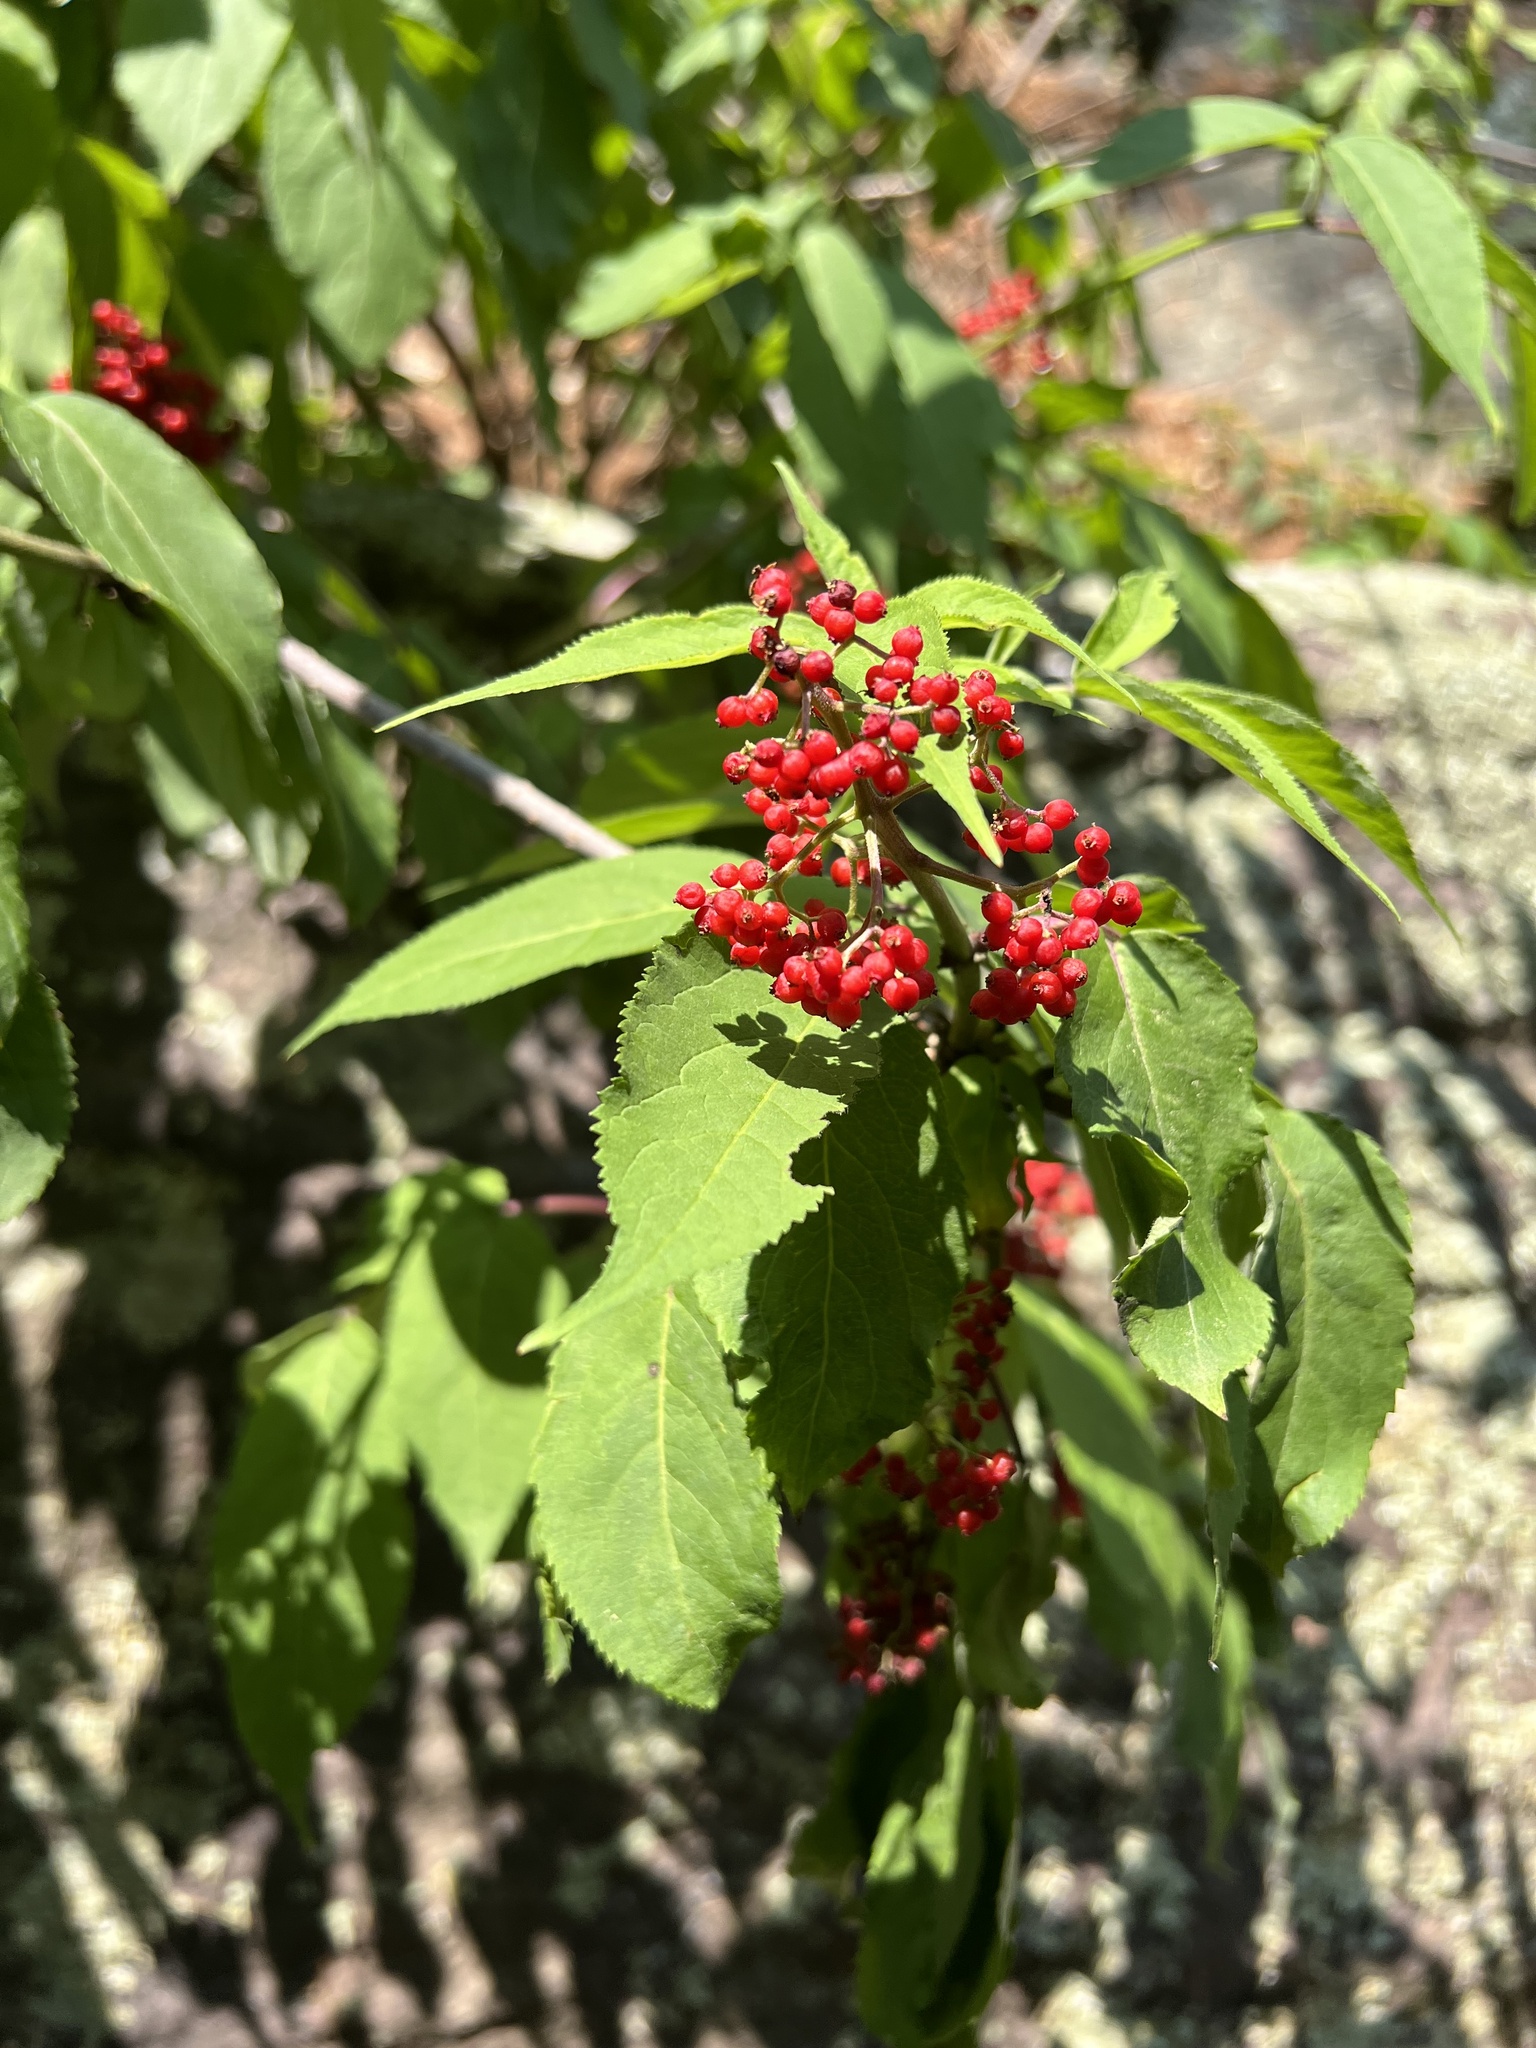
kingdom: Plantae
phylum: Tracheophyta
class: Magnoliopsida
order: Dipsacales
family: Viburnaceae
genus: Sambucus
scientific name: Sambucus racemosa
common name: Red-berried elder
